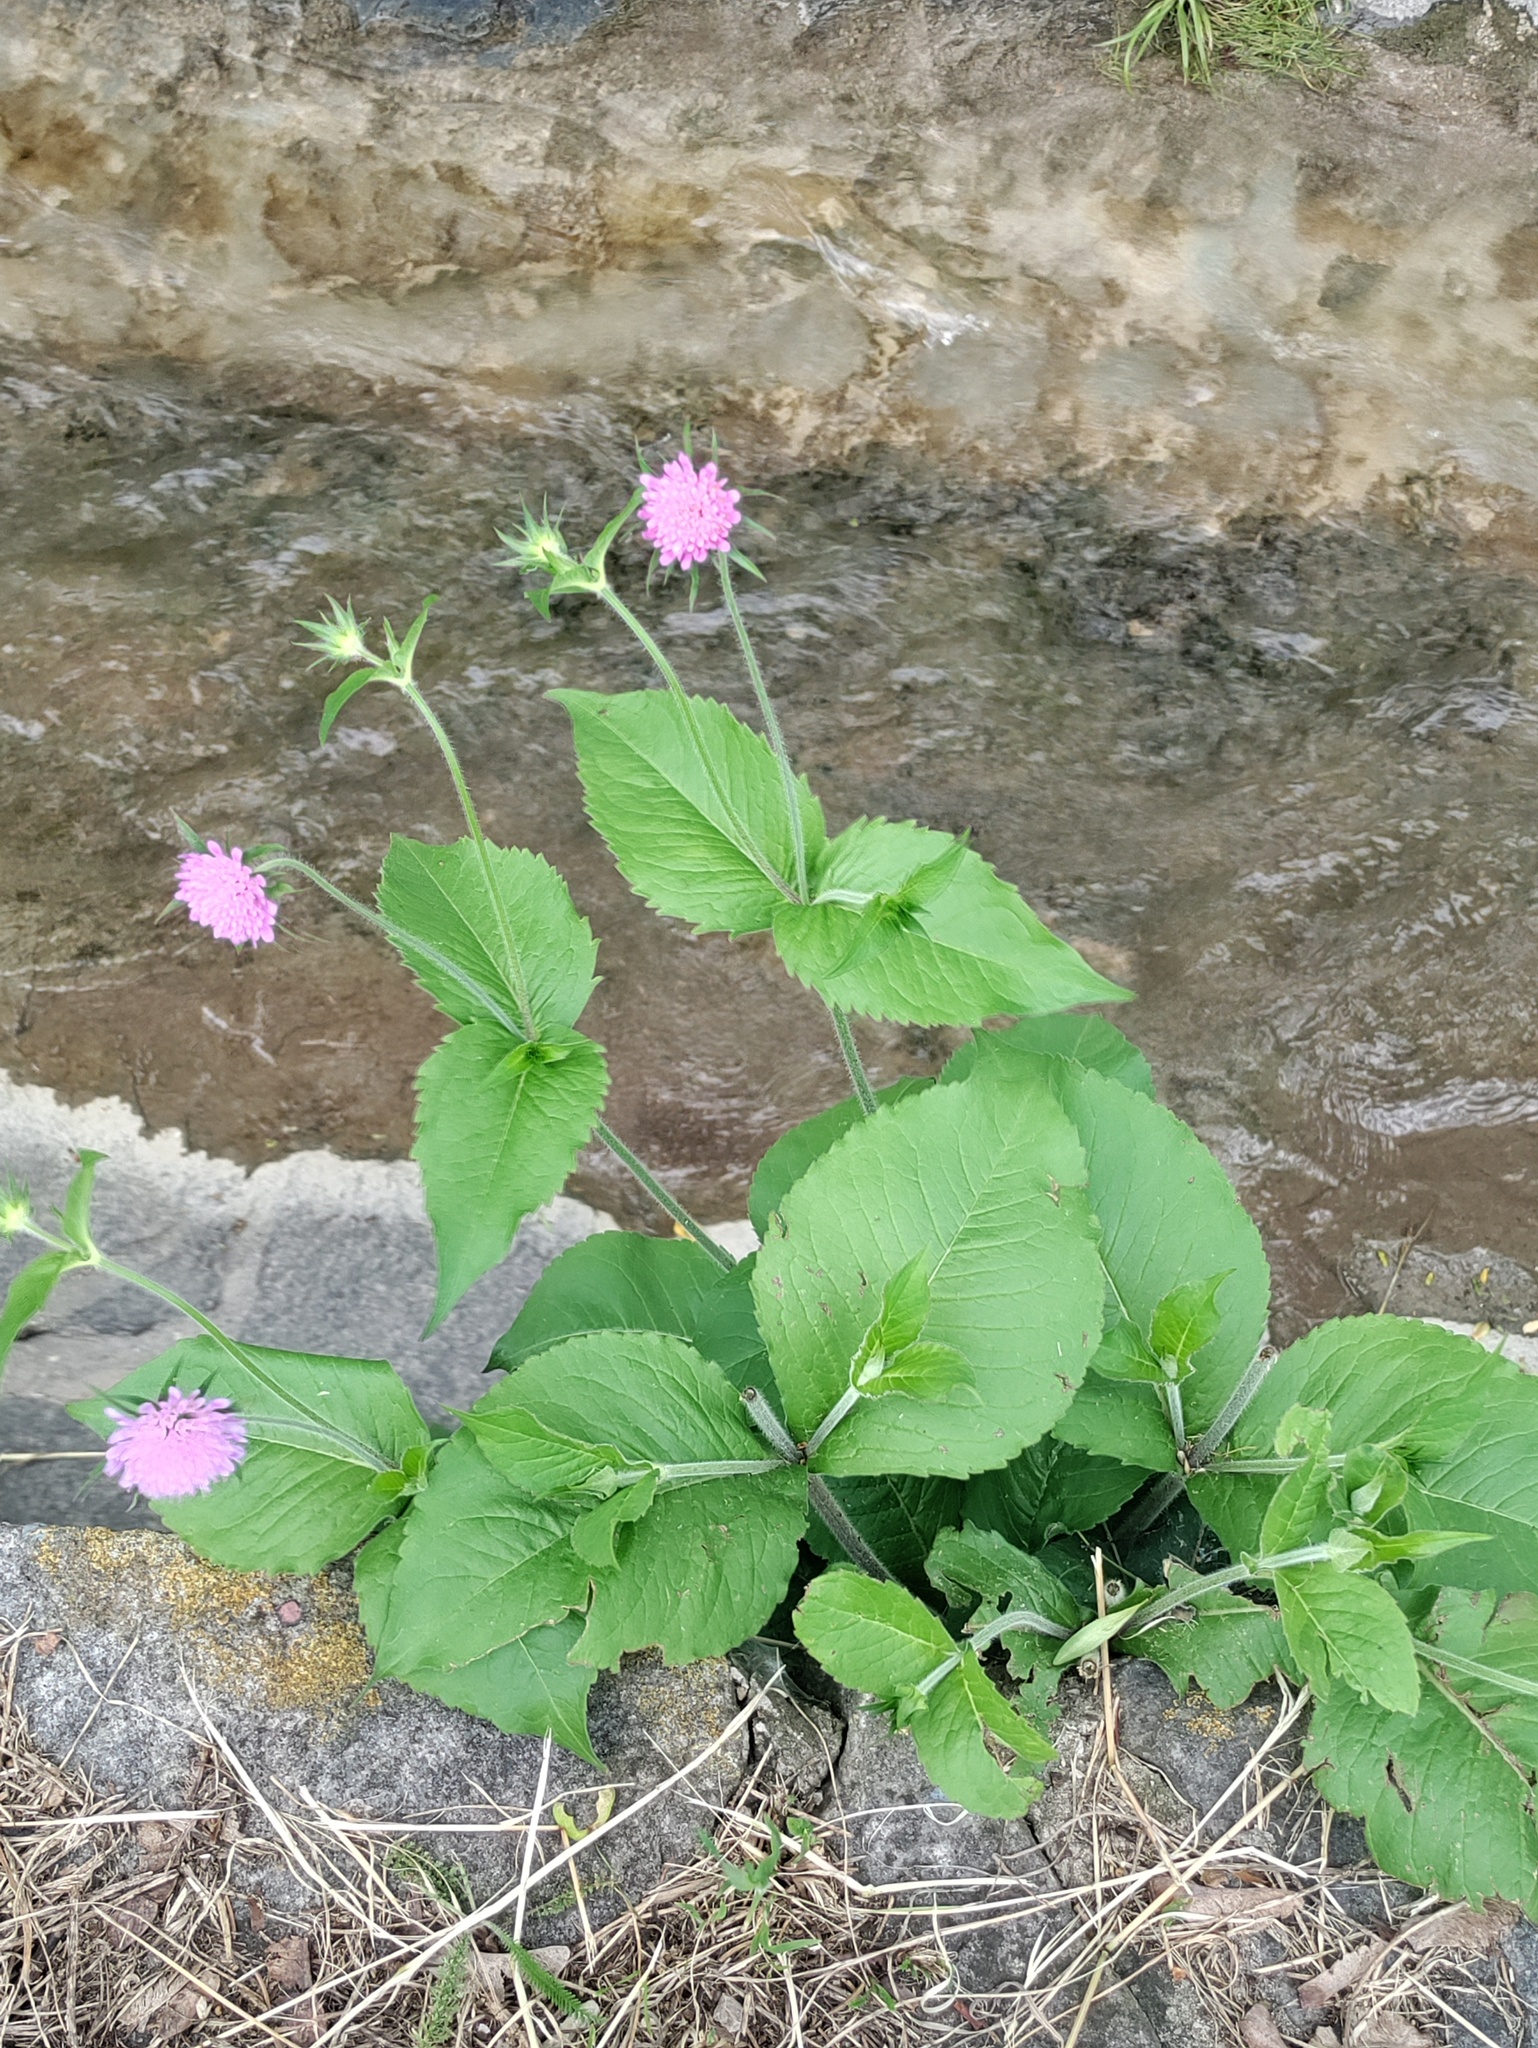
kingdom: Plantae
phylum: Tracheophyta
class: Magnoliopsida
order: Dipsacales
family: Caprifoliaceae
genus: Knautia
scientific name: Knautia drymeia
